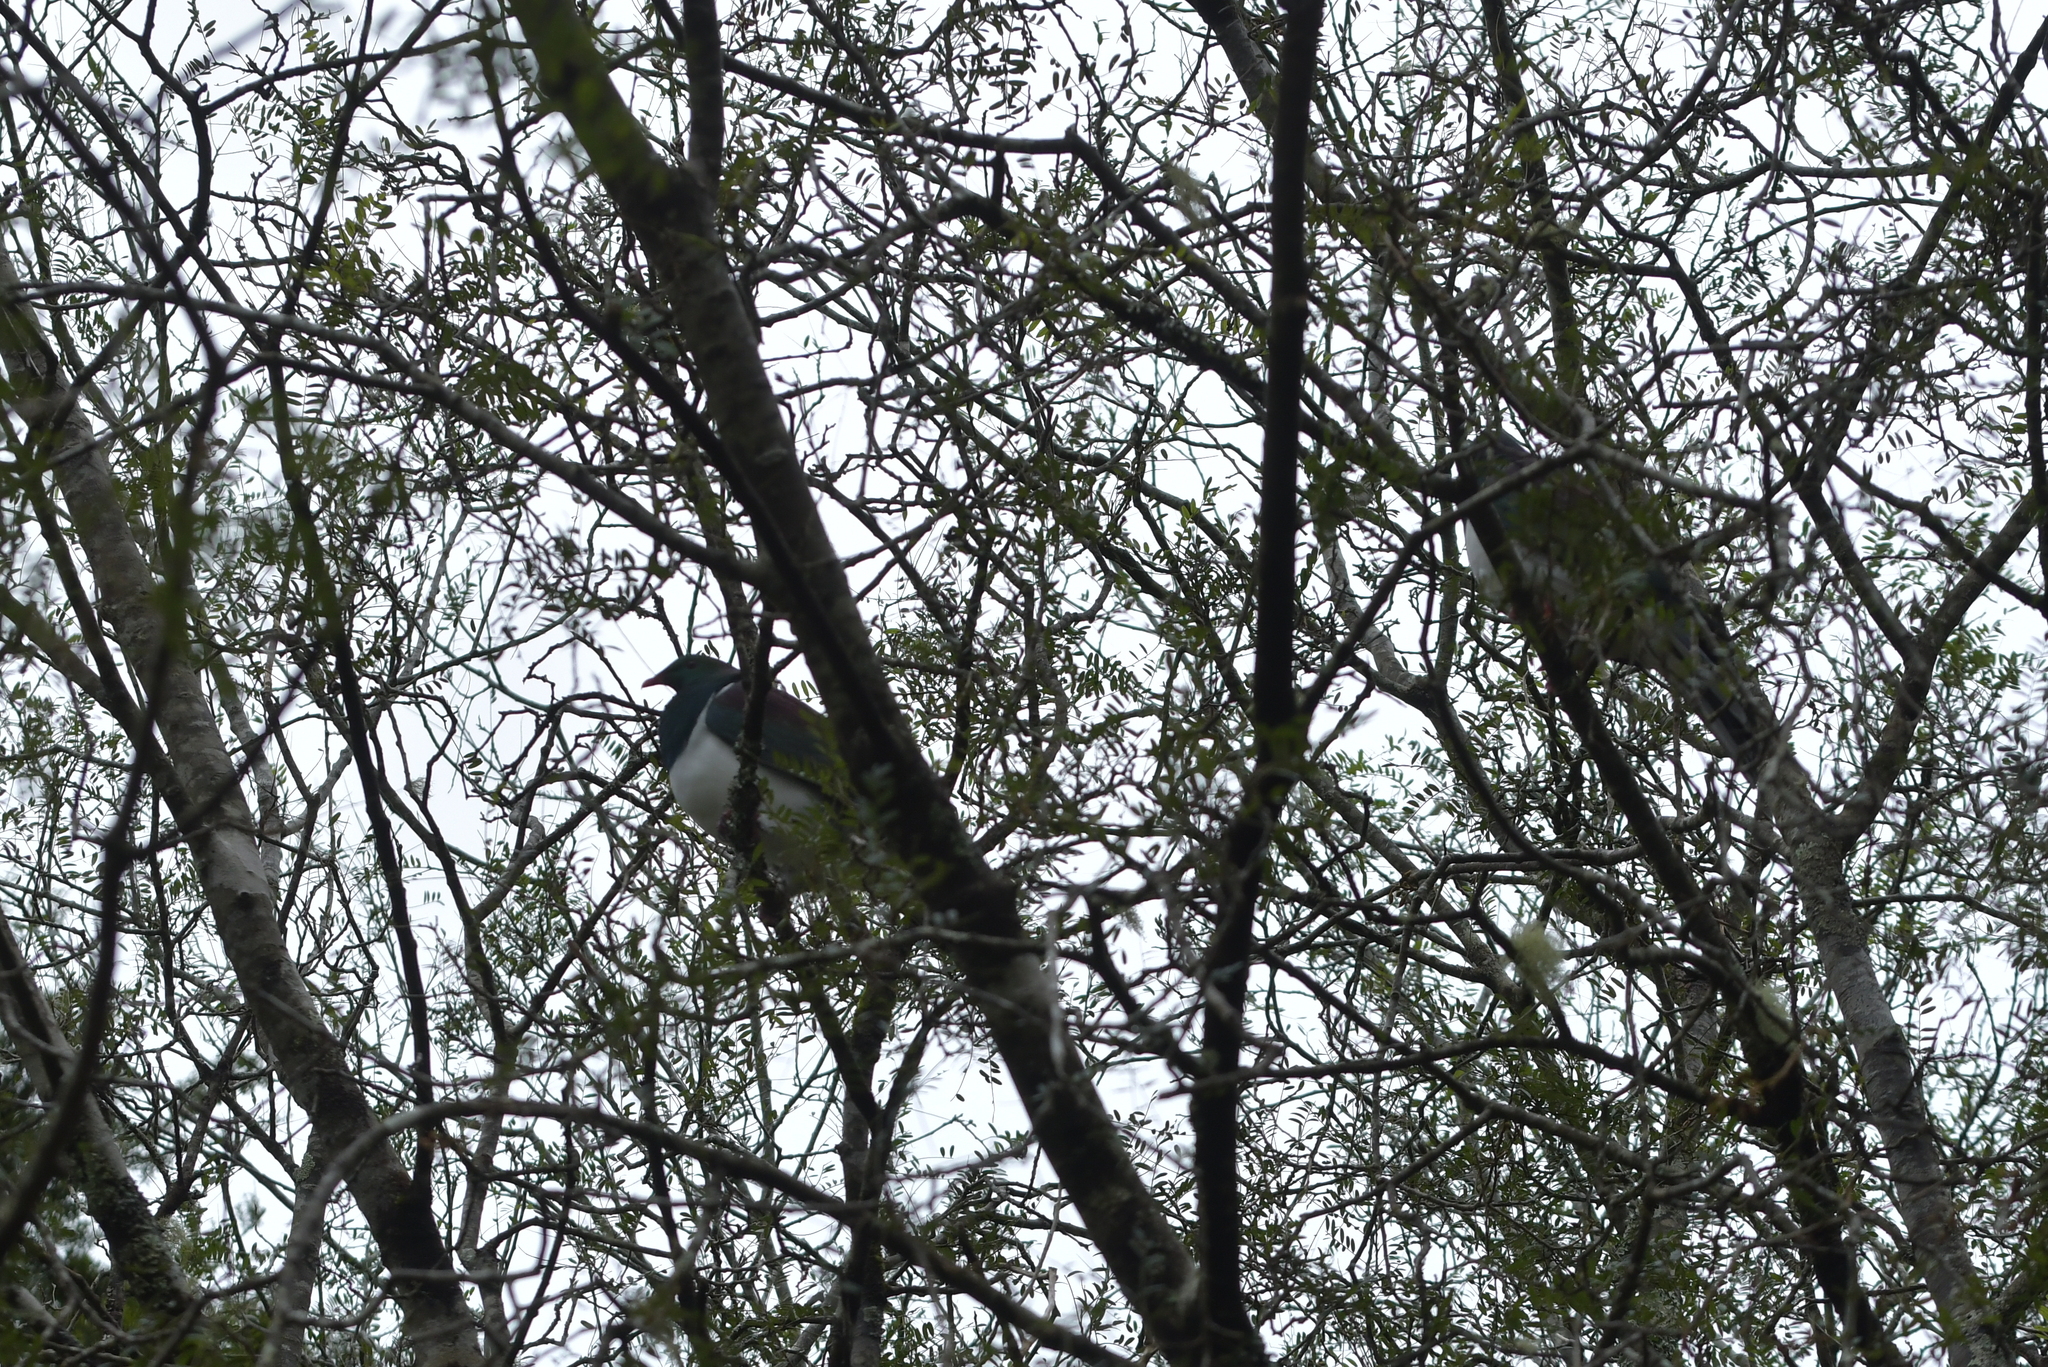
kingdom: Animalia
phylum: Chordata
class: Aves
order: Columbiformes
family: Columbidae
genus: Hemiphaga
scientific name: Hemiphaga novaeseelandiae
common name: New zealand pigeon
